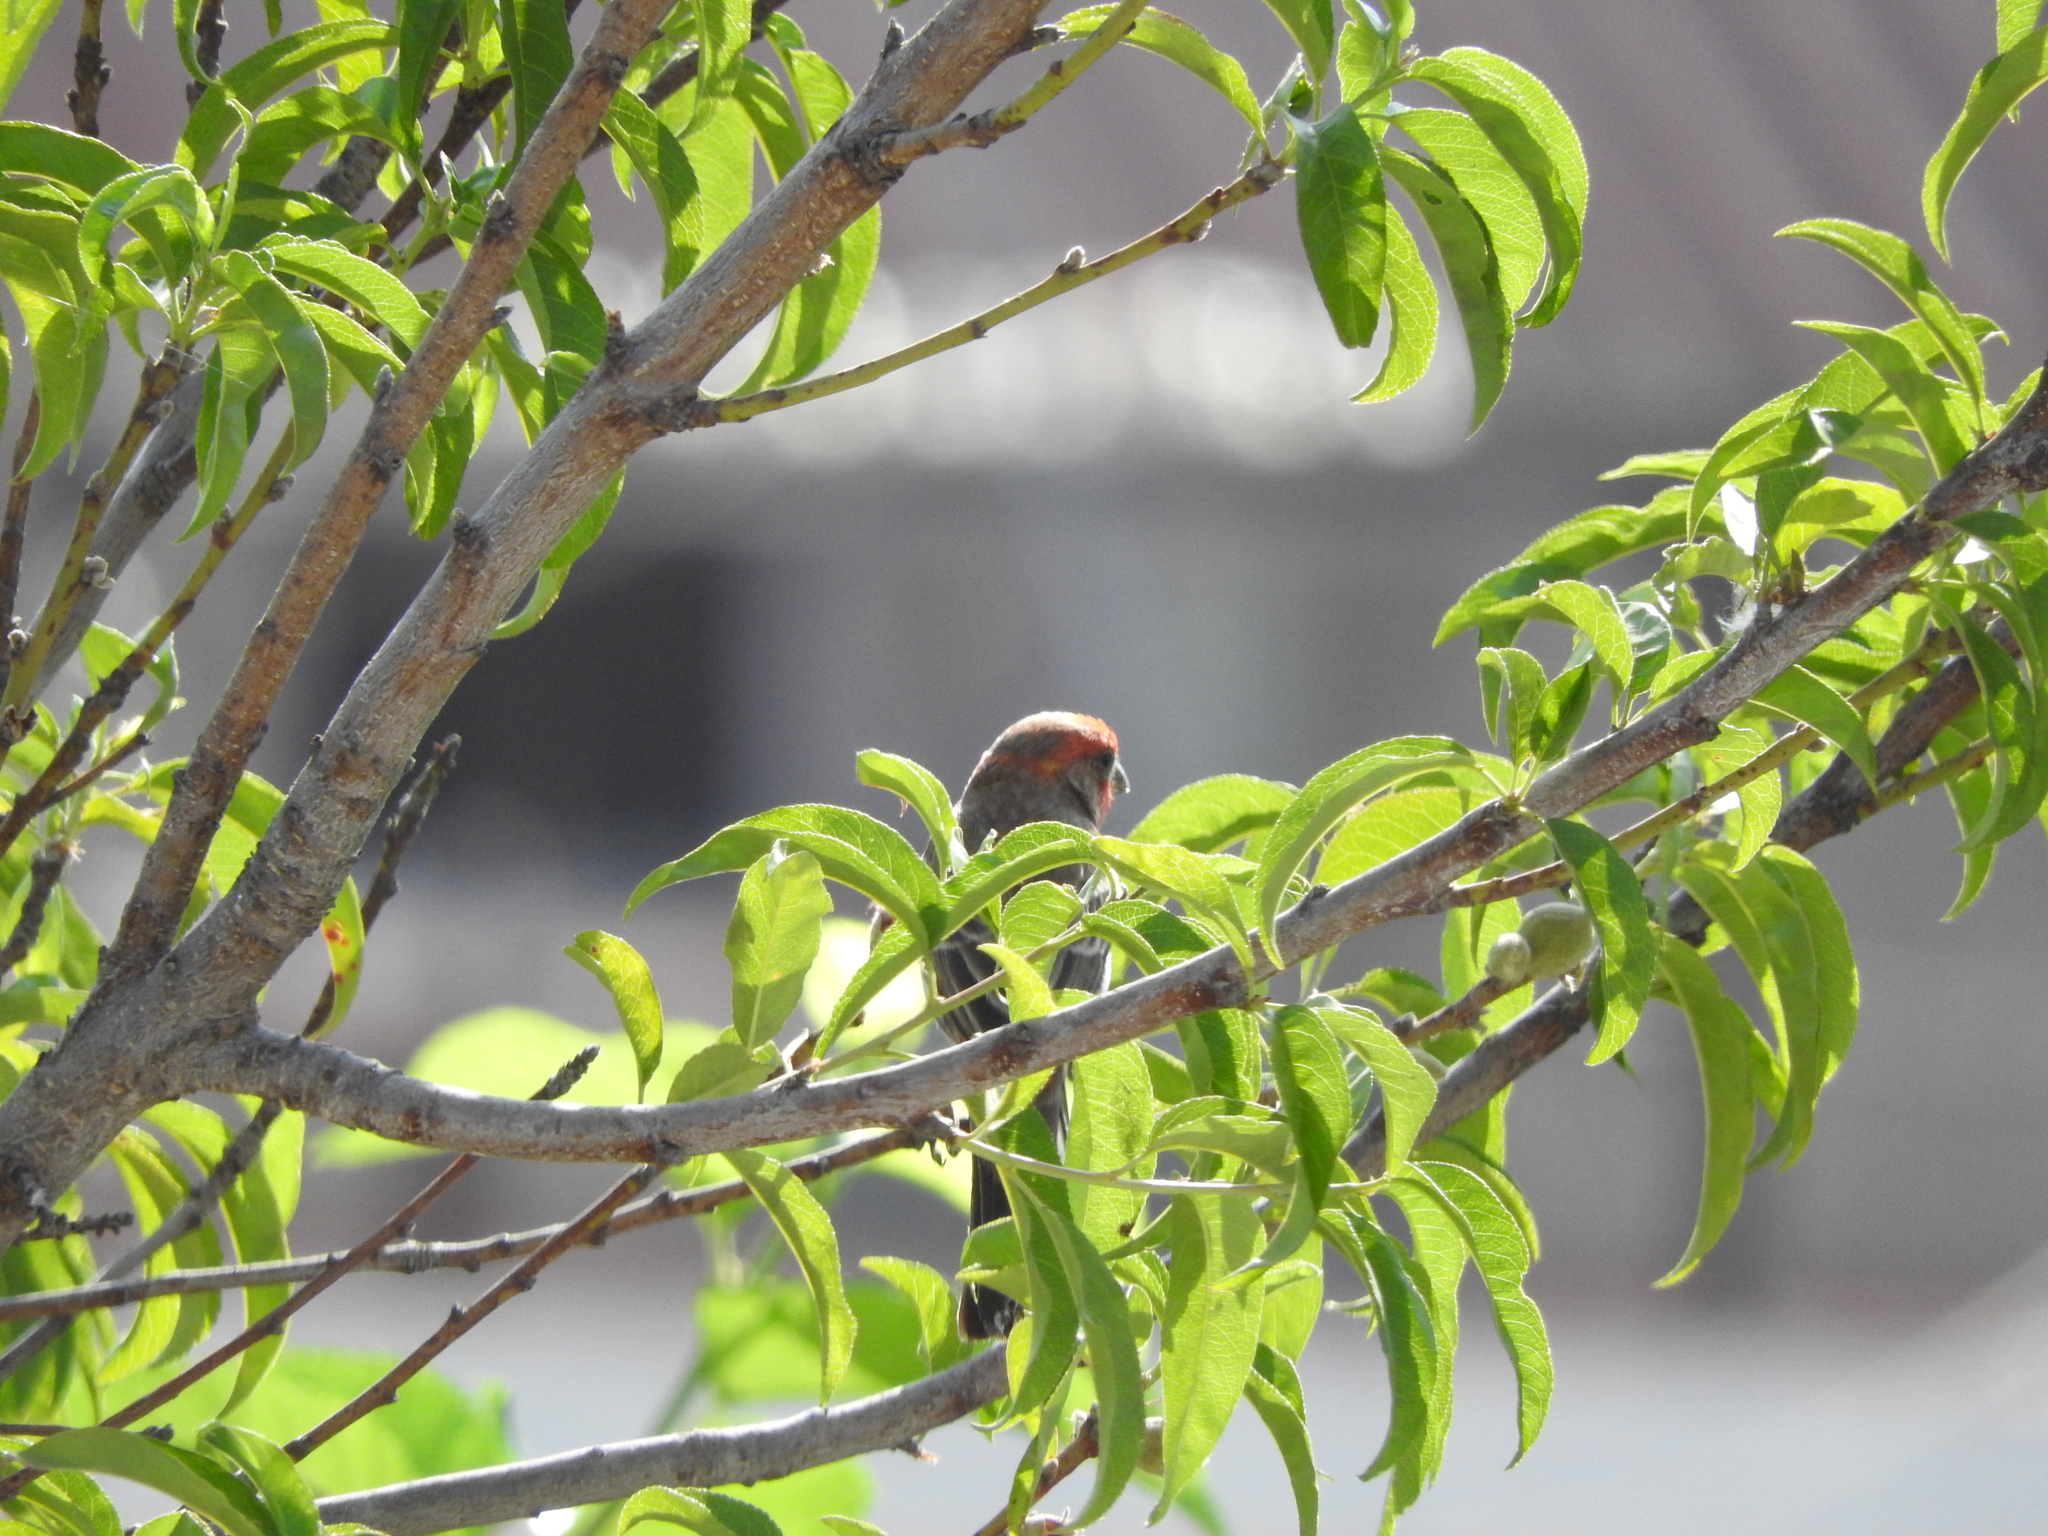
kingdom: Animalia
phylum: Chordata
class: Aves
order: Passeriformes
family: Fringillidae
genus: Haemorhous
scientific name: Haemorhous mexicanus
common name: House finch
